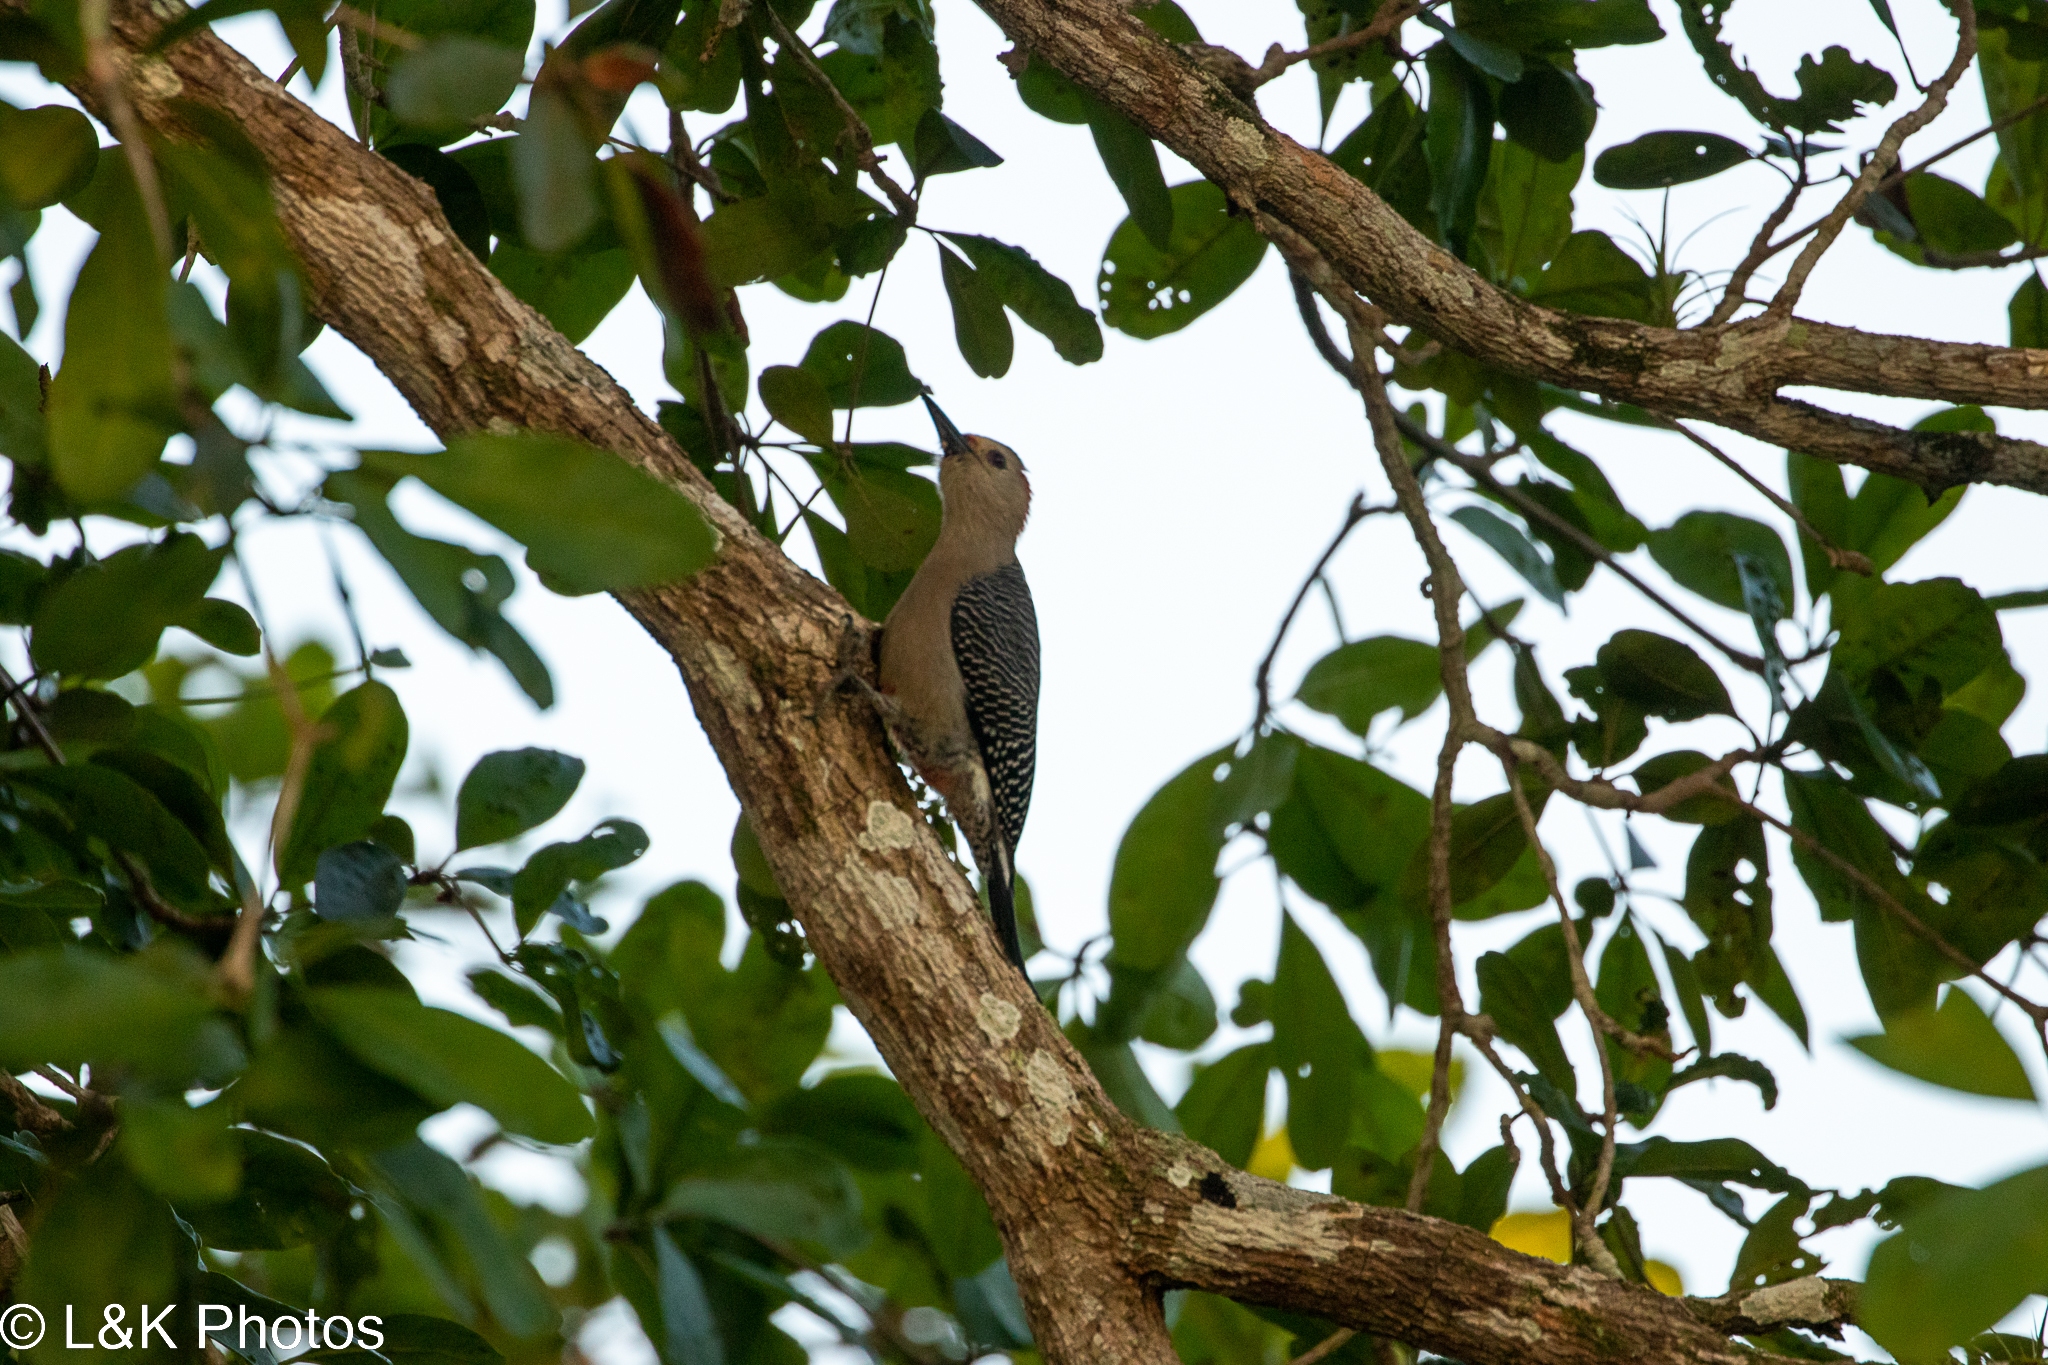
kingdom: Animalia
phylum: Chordata
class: Aves
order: Piciformes
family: Picidae
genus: Melanerpes
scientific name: Melanerpes aurifrons
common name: Golden-fronted woodpecker
